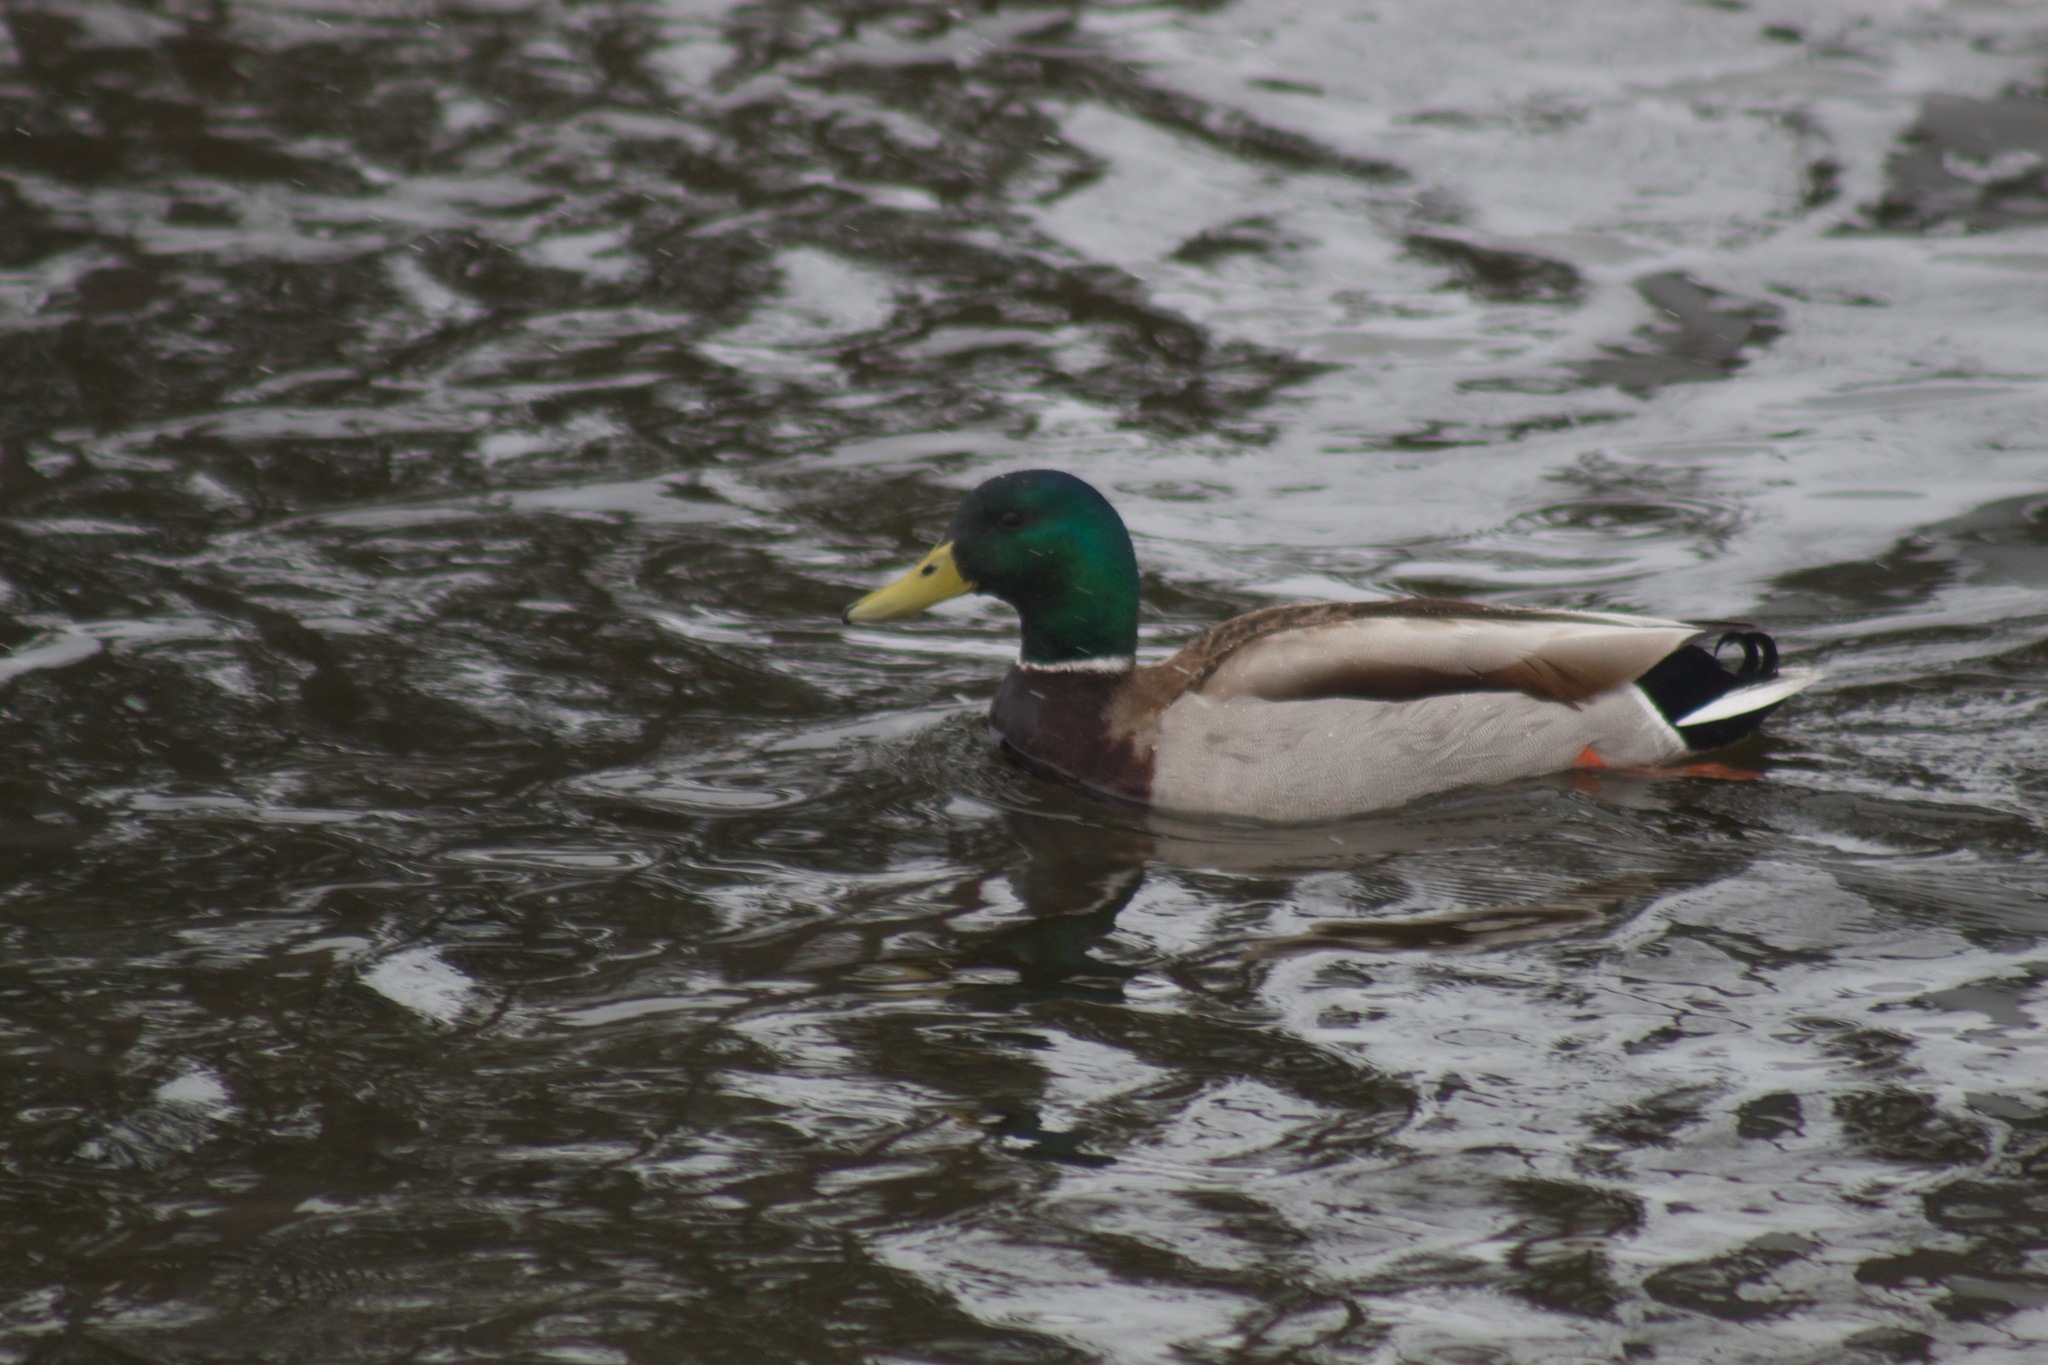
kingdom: Animalia
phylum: Chordata
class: Aves
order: Anseriformes
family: Anatidae
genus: Anas
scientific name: Anas platyrhynchos
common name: Mallard
